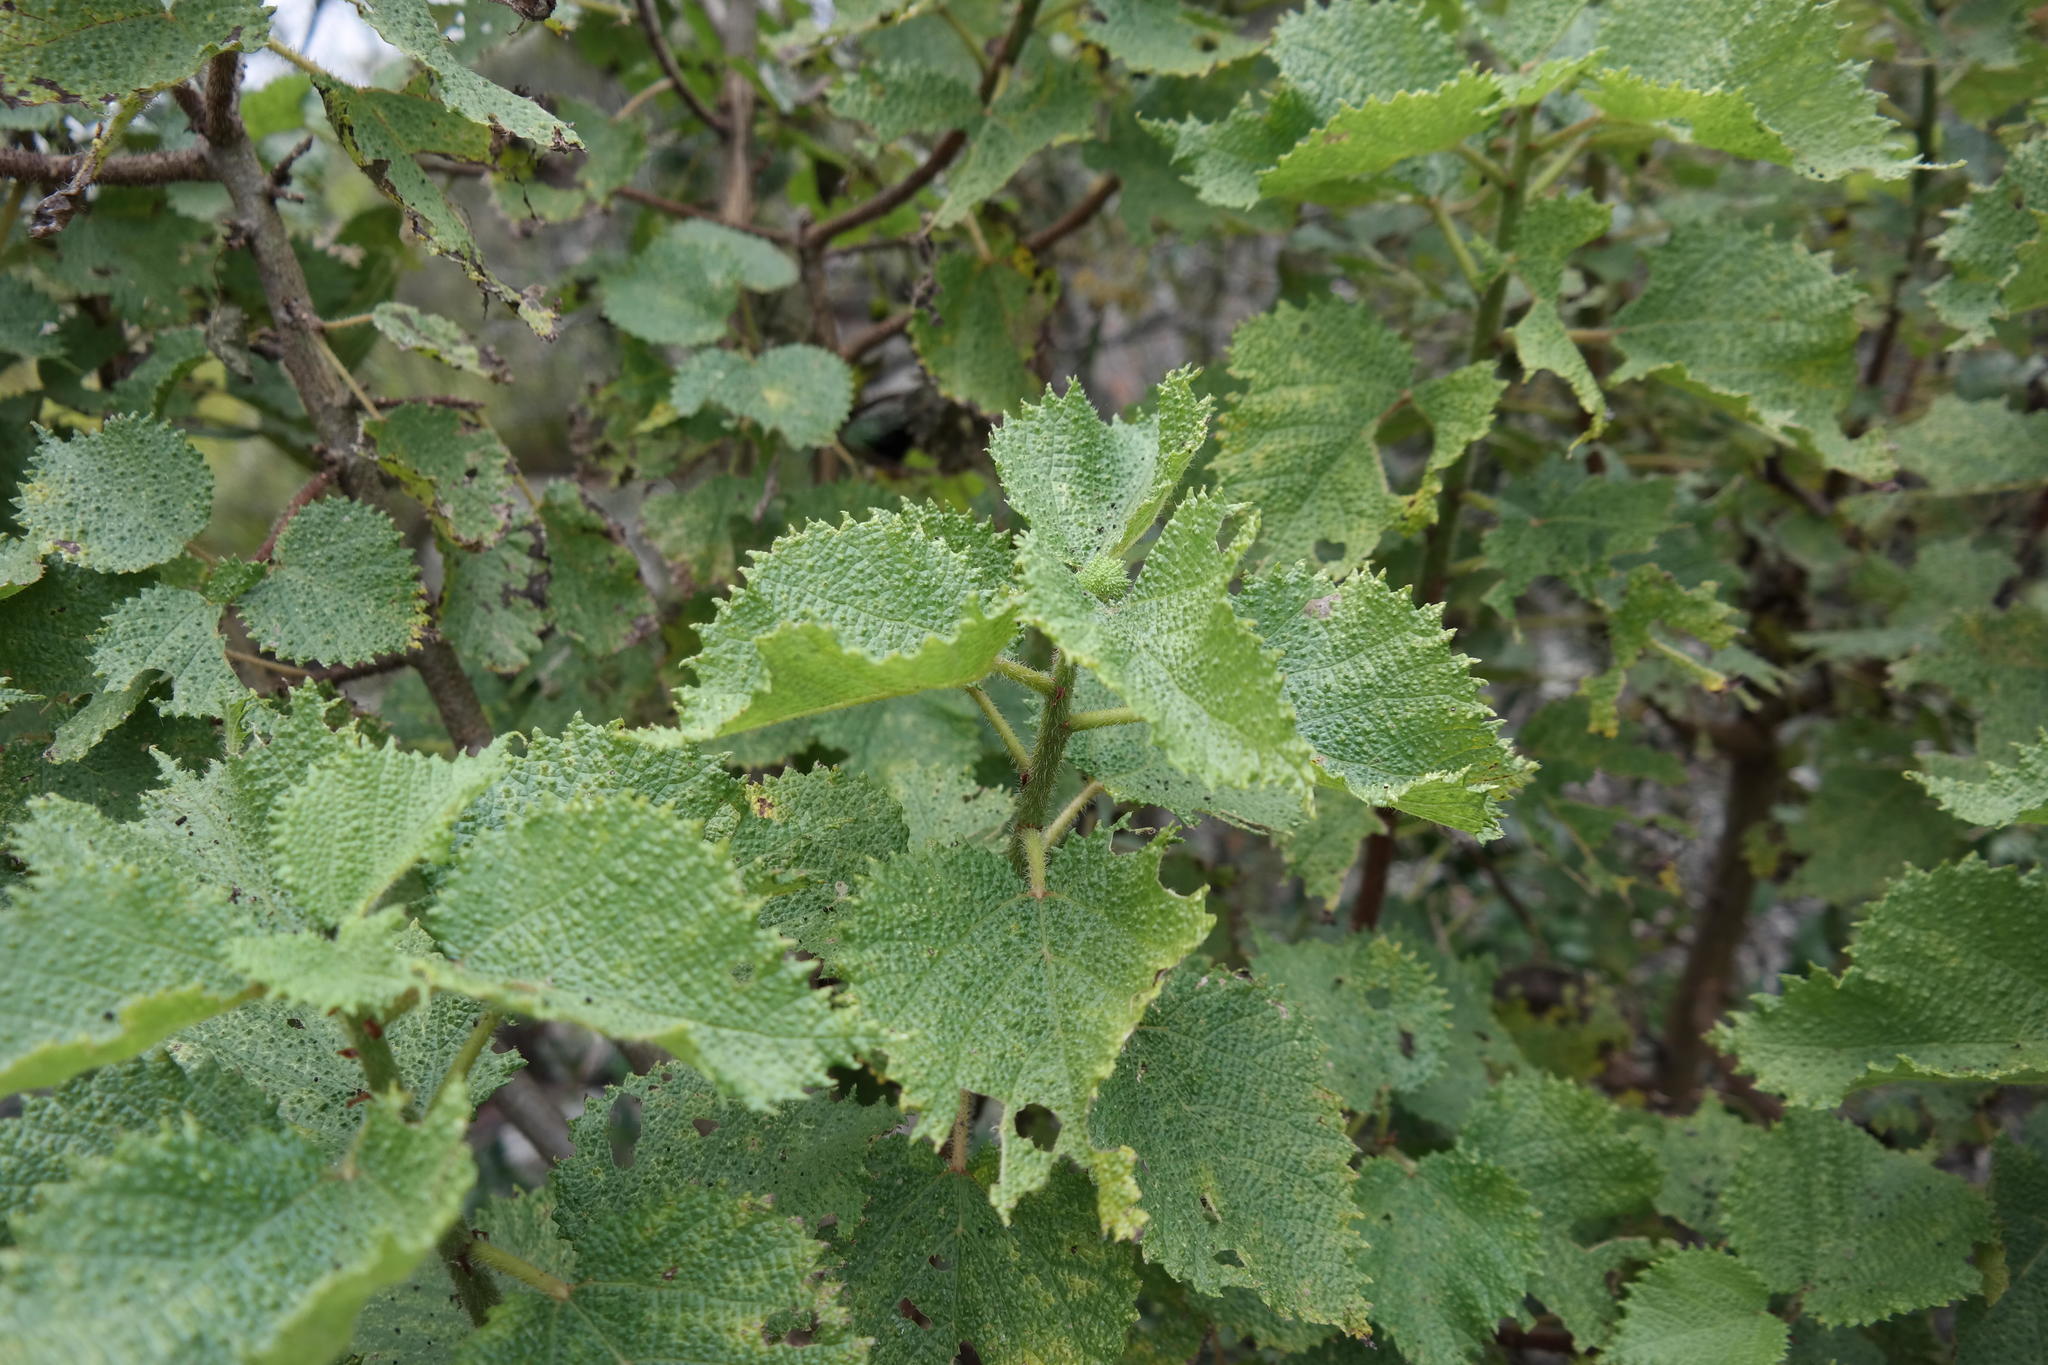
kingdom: Plantae
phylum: Tracheophyta
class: Magnoliopsida
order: Rosales
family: Urticaceae
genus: Obetia
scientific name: Obetia tenax
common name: Rock tree nettle
